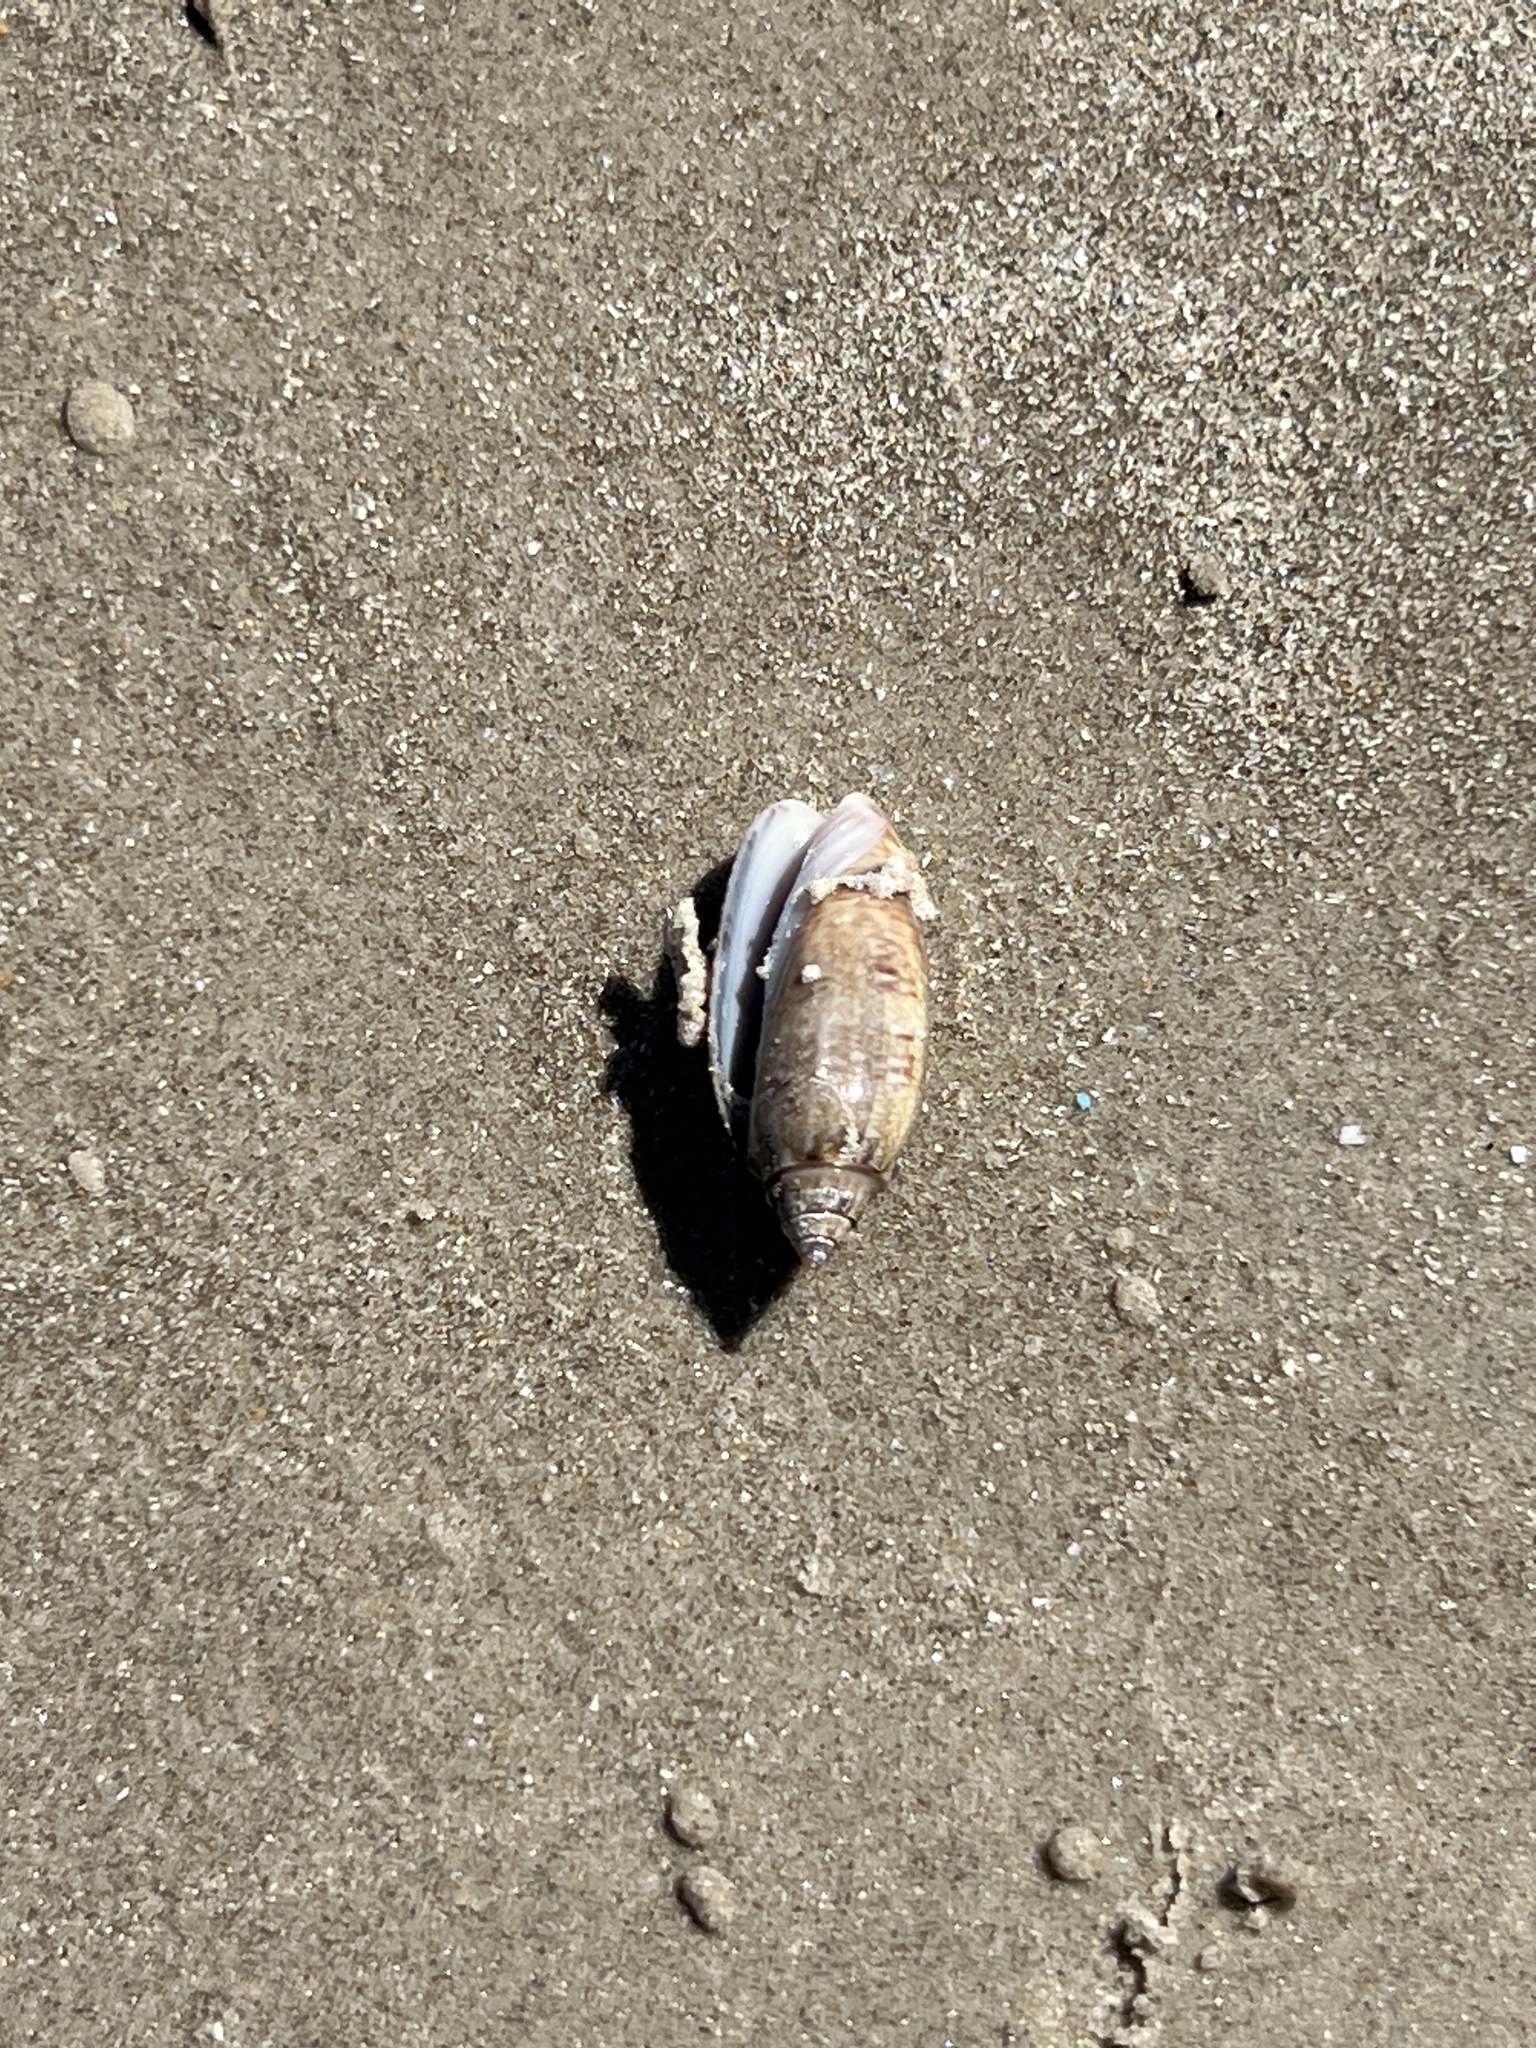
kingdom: Animalia
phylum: Mollusca
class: Gastropoda
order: Neogastropoda
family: Olividae
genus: Oliva
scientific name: Oliva sayana
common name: Lettered olive
